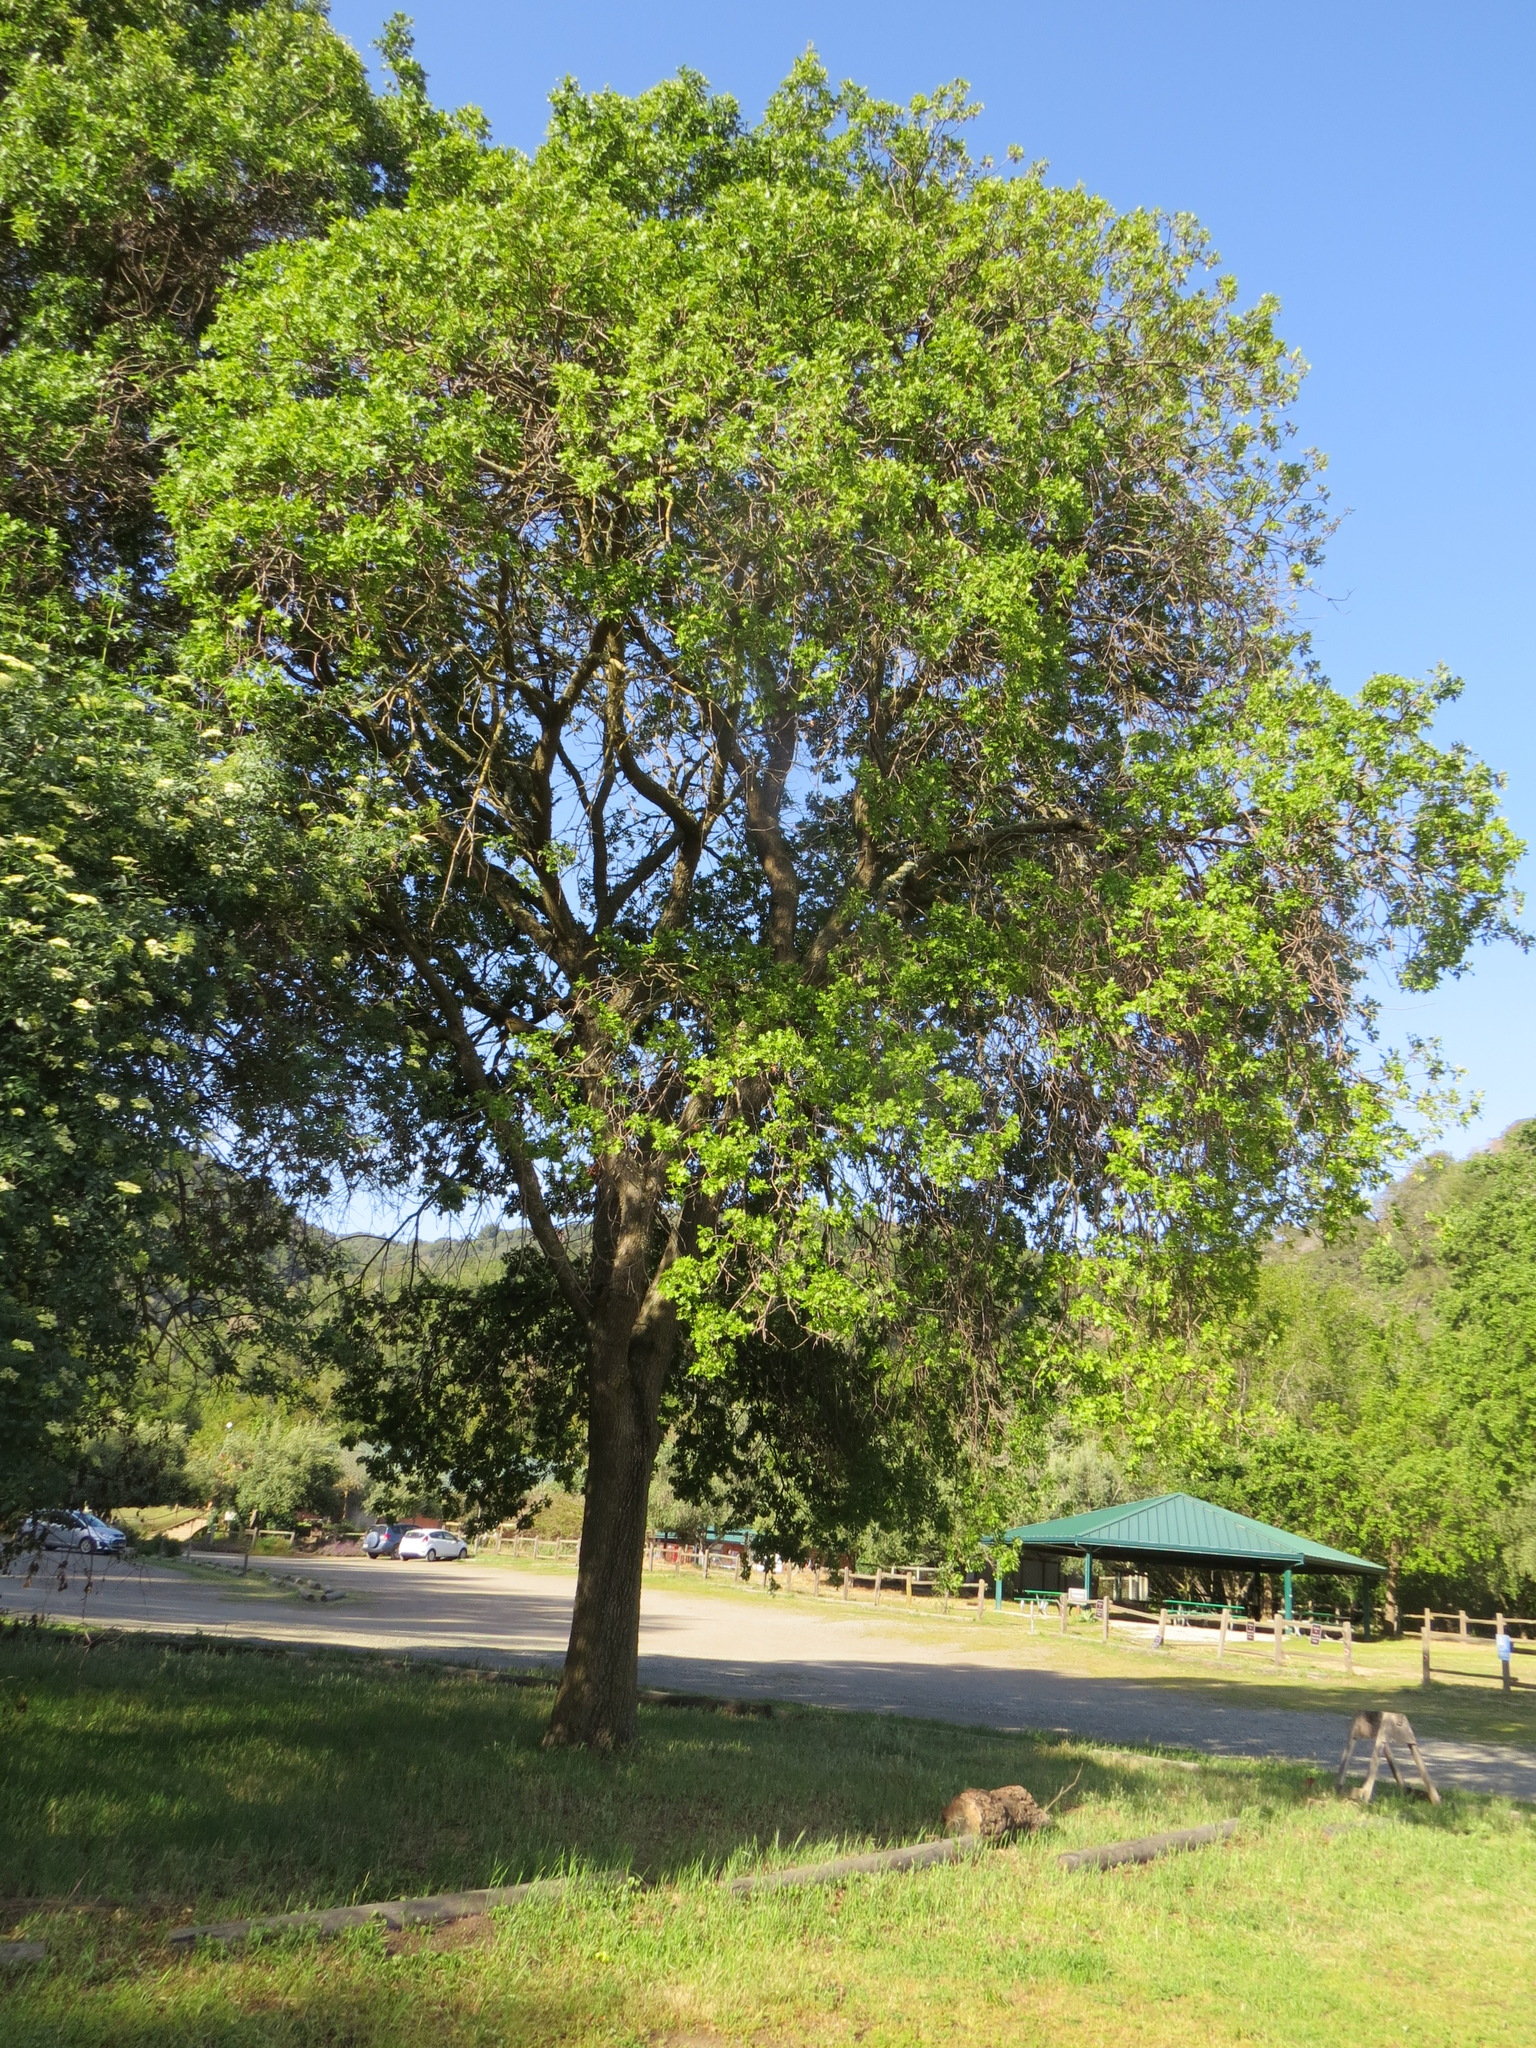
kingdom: Plantae
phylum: Tracheophyta
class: Magnoliopsida
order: Fagales
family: Fagaceae
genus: Quercus
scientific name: Quercus lobata
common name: Valley oak
